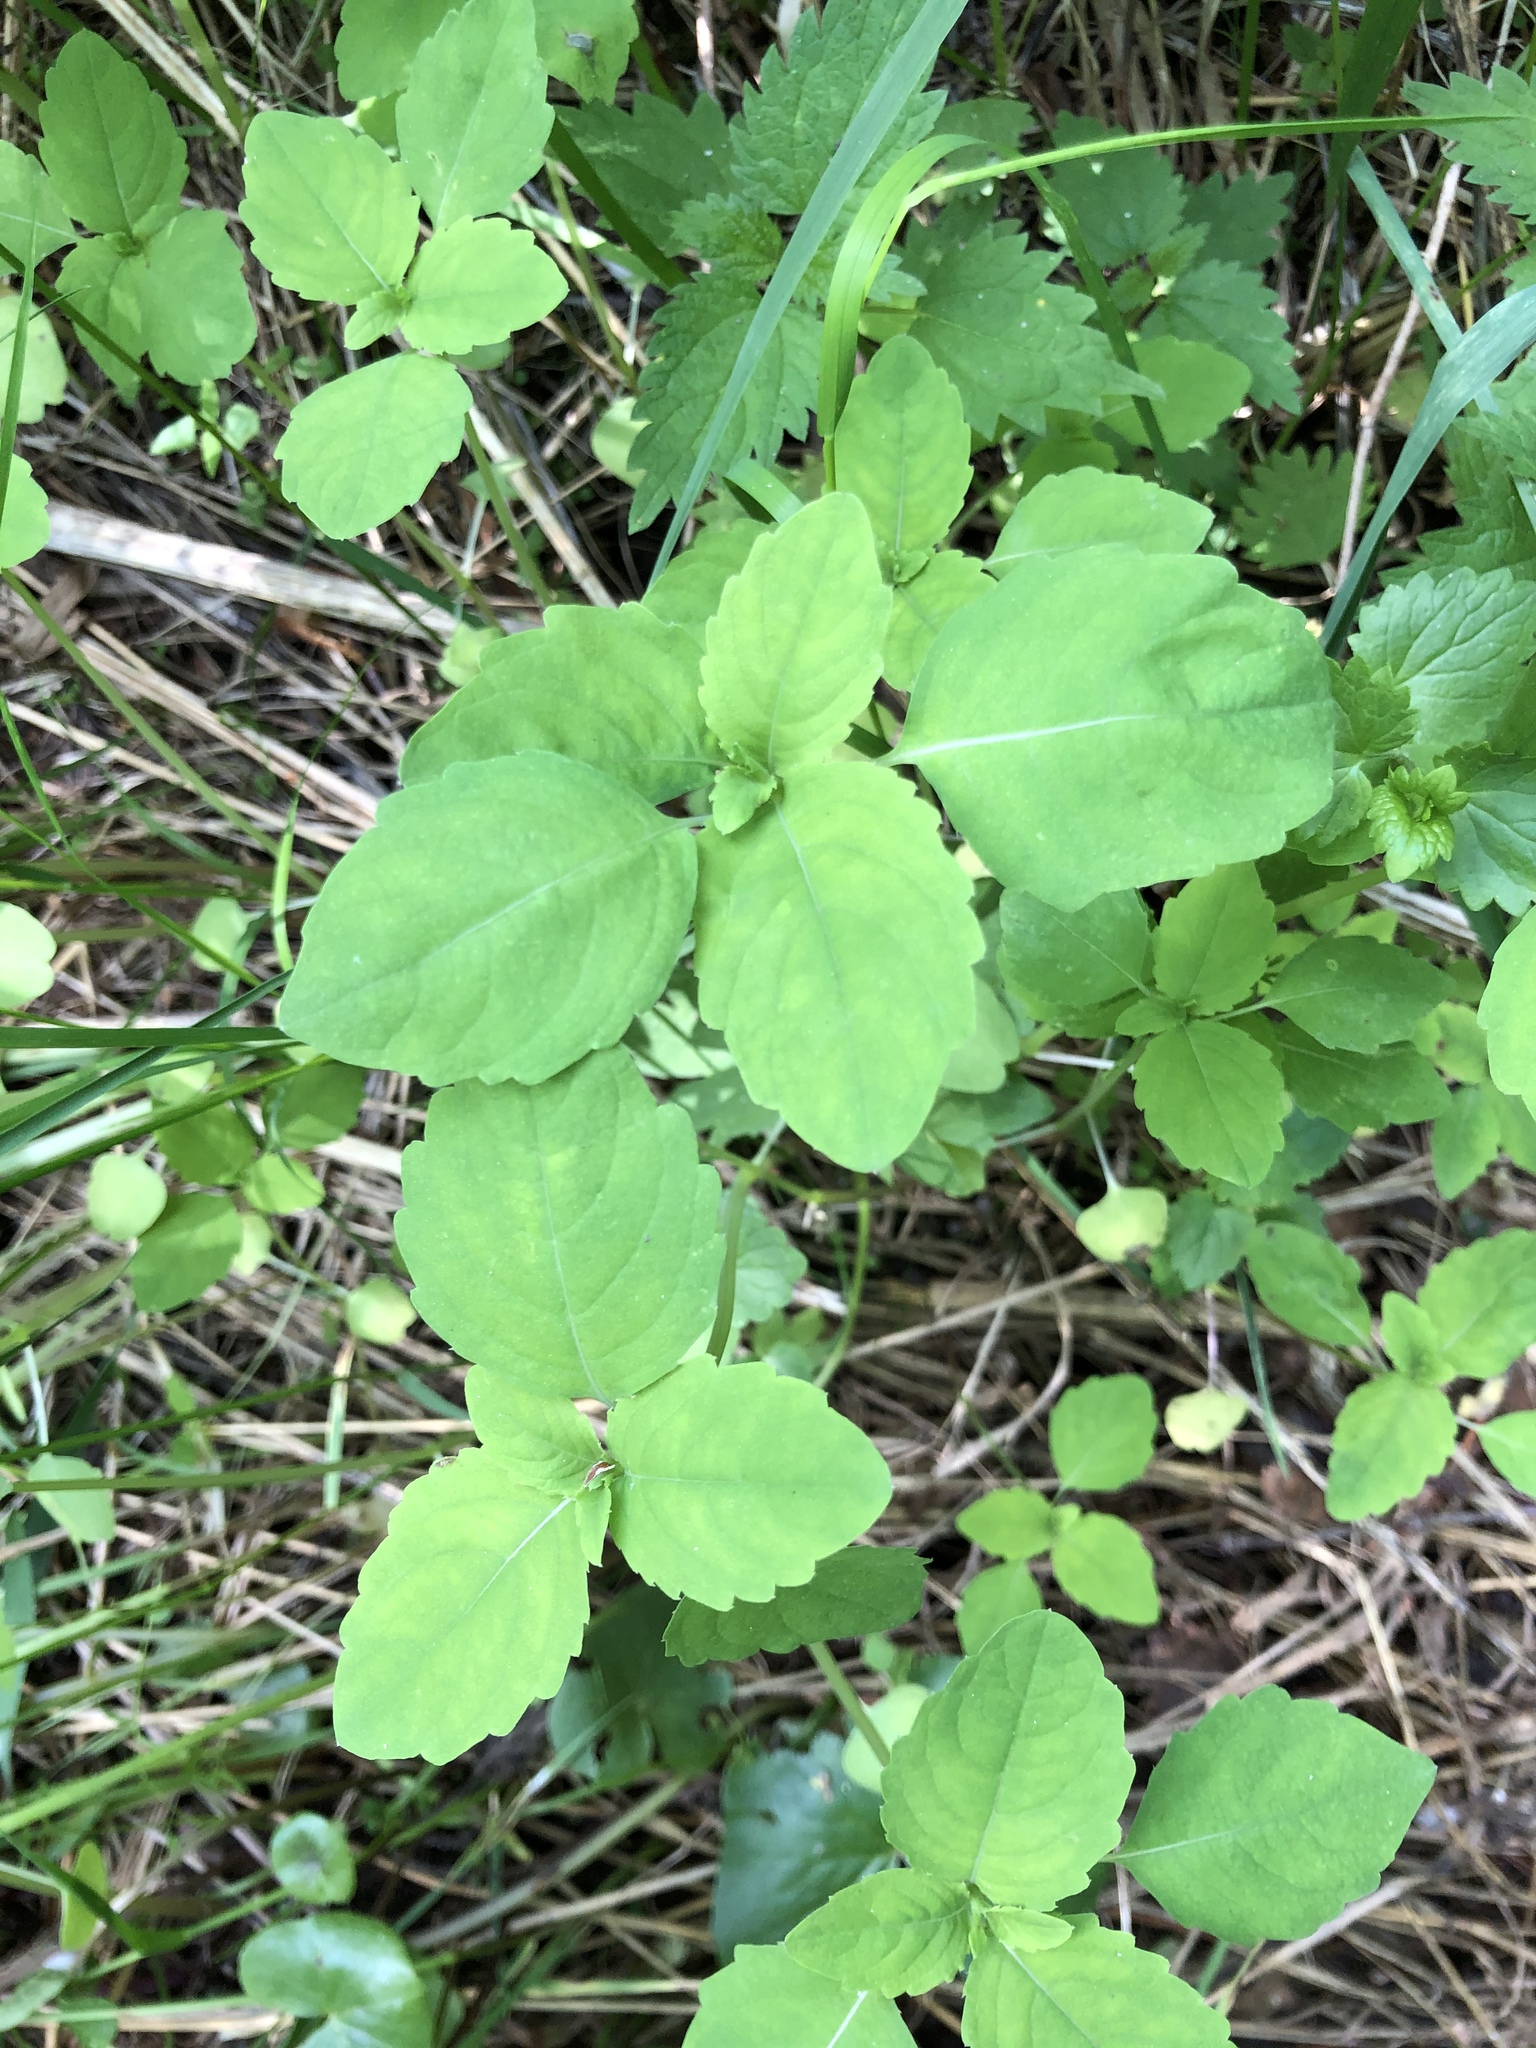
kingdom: Plantae
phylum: Tracheophyta
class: Magnoliopsida
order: Ericales
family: Balsaminaceae
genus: Impatiens
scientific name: Impatiens noli-tangere
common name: Touch-me-not balsam
